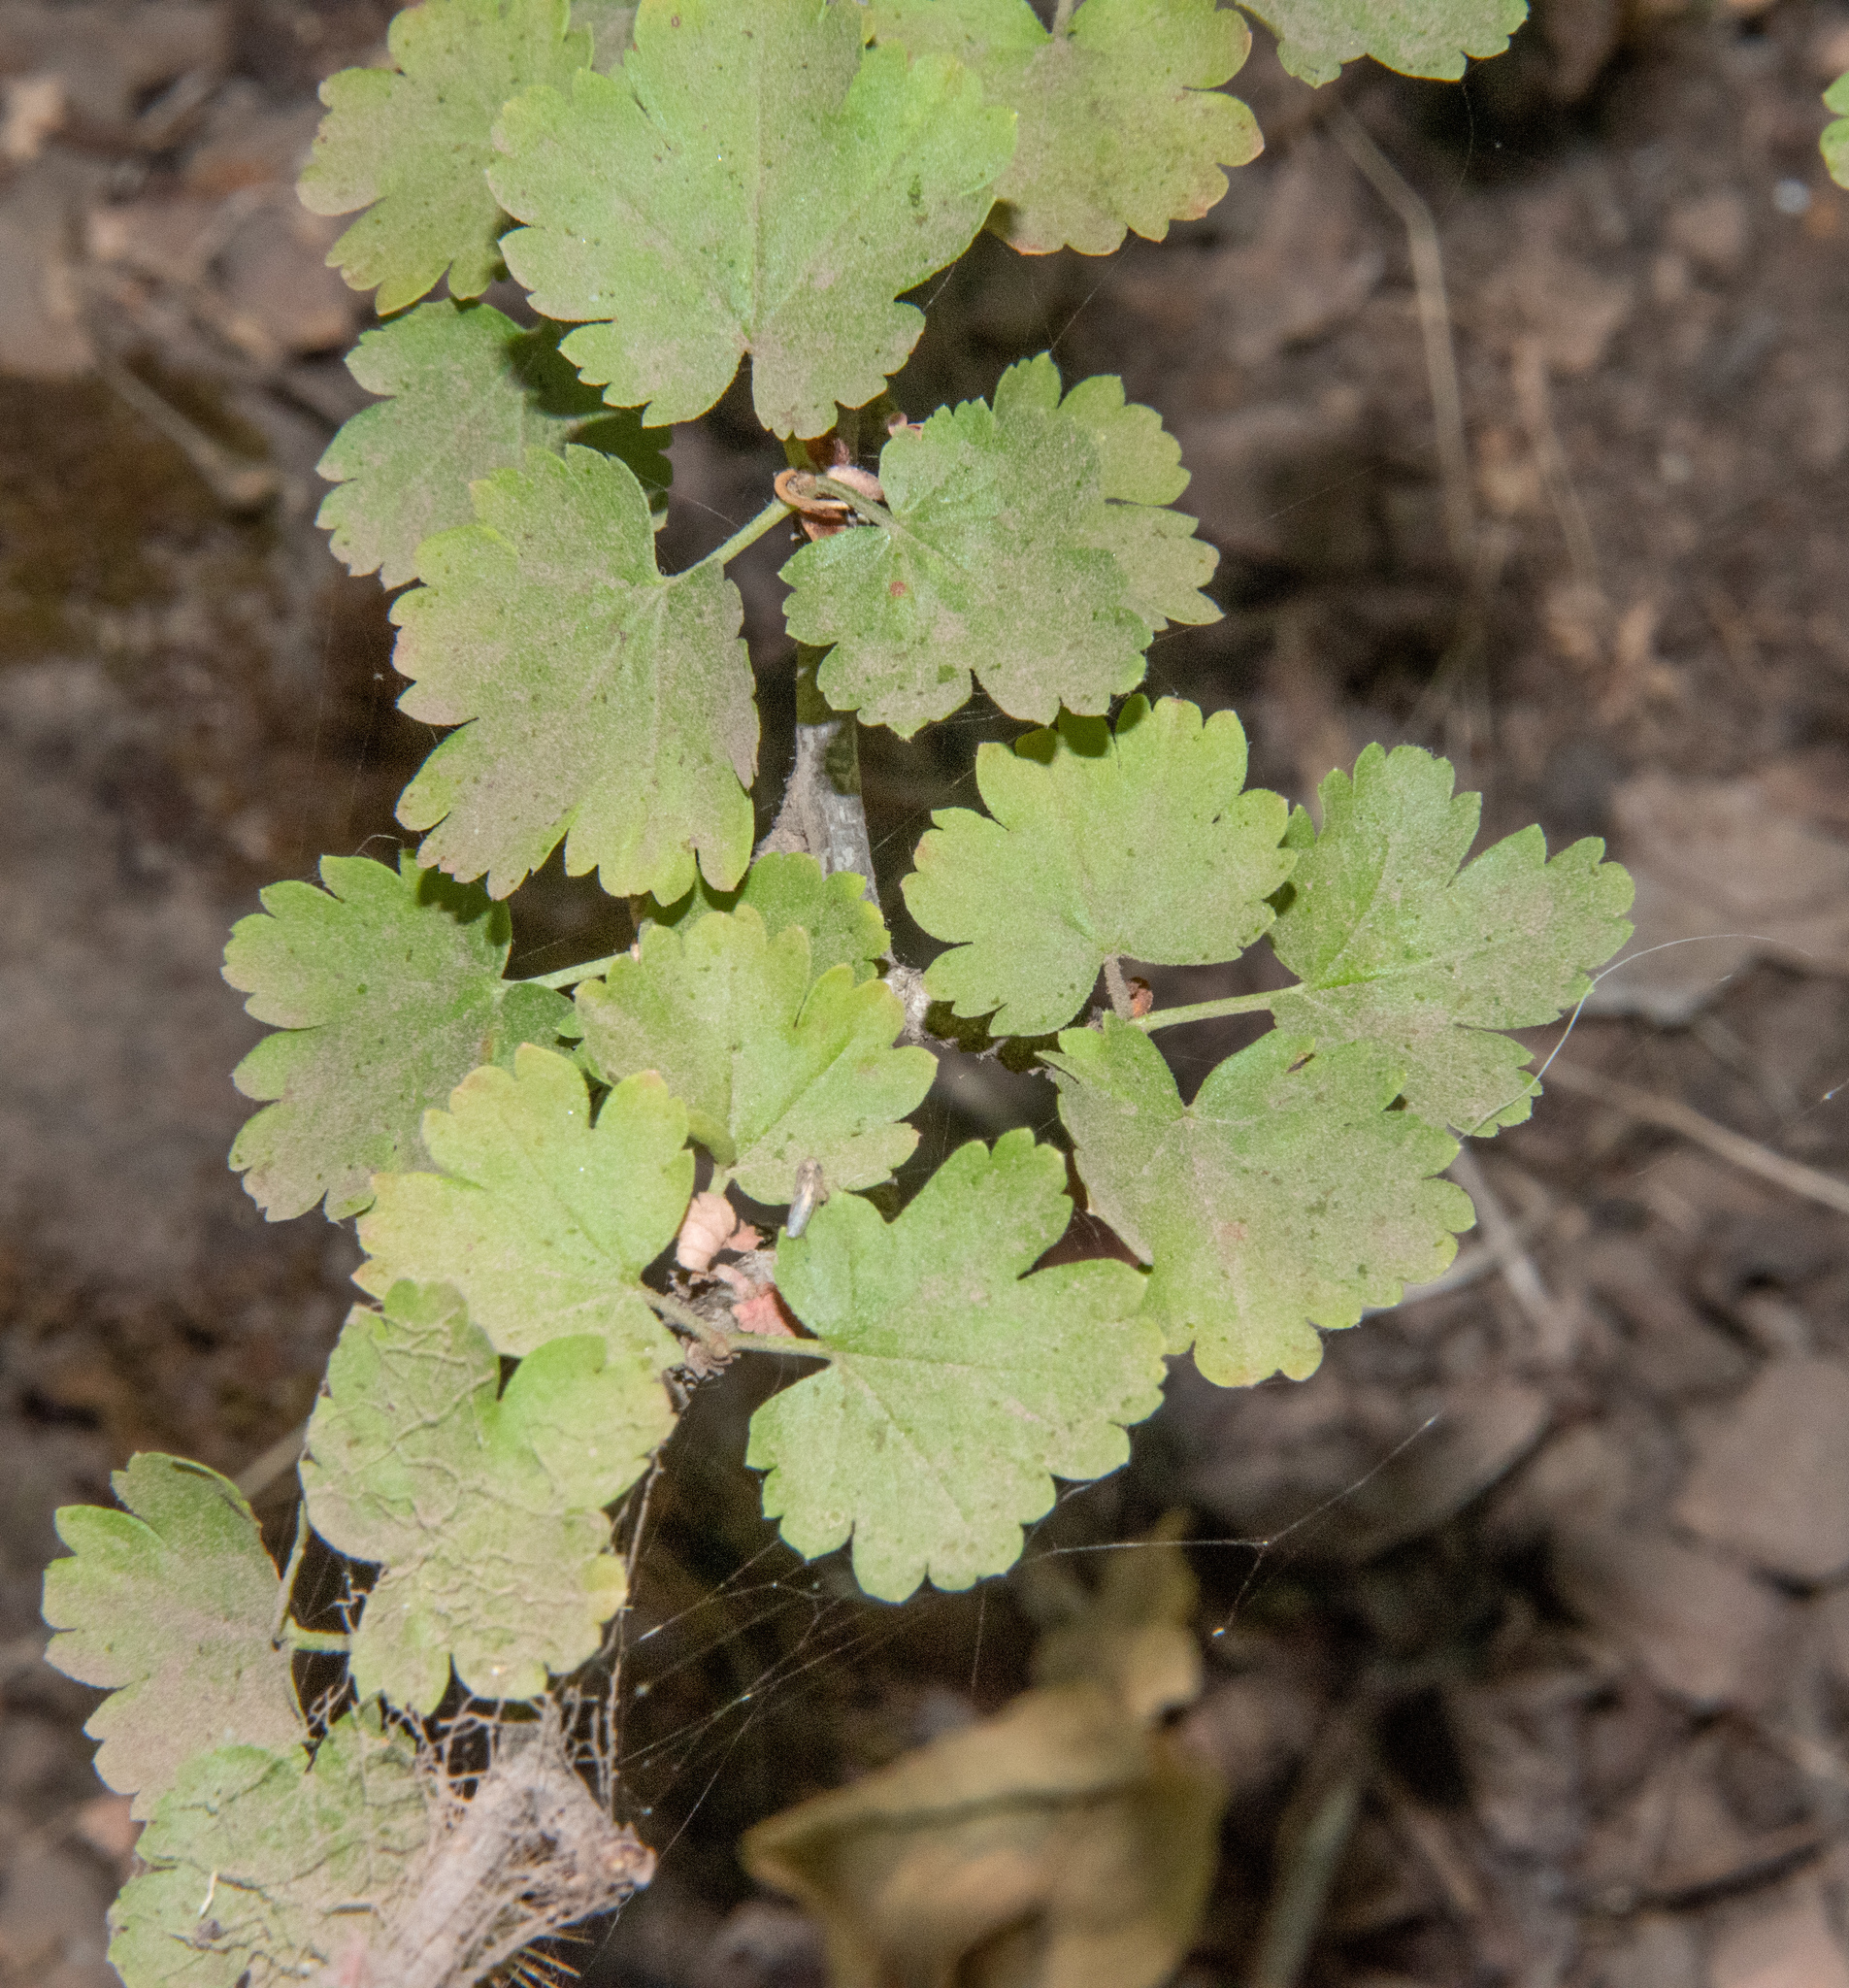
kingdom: Plantae
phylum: Tracheophyta
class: Magnoliopsida
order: Saxifragales
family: Grossulariaceae
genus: Ribes
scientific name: Ribes californicum
